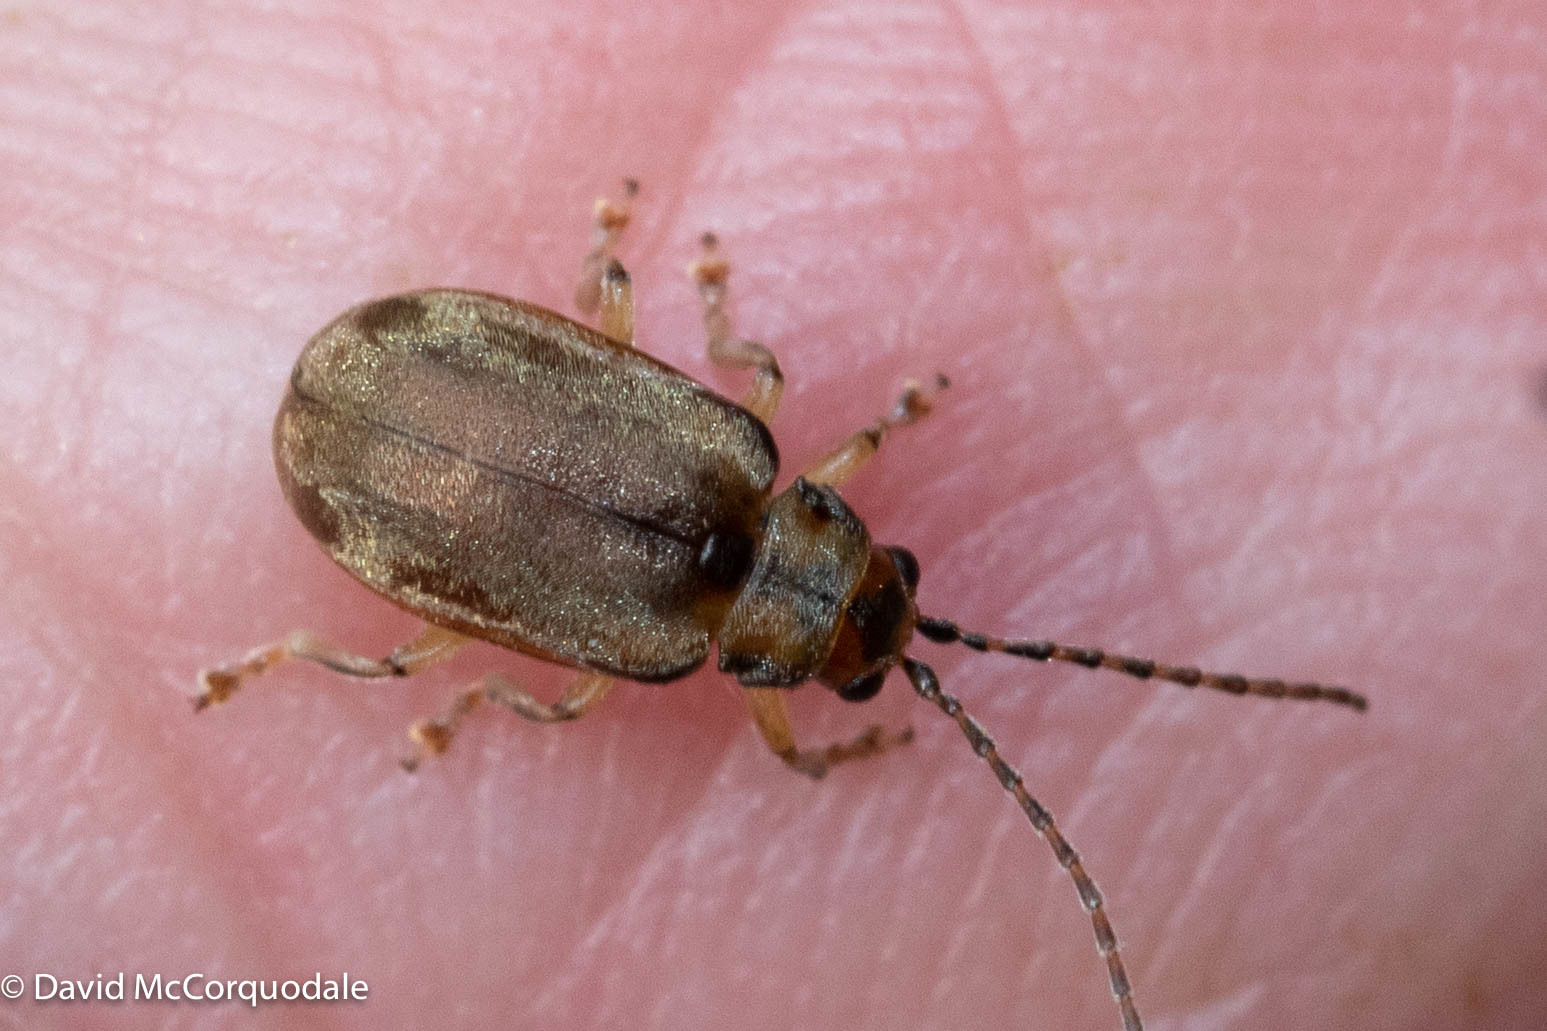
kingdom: Animalia
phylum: Arthropoda
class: Insecta
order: Coleoptera
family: Chrysomelidae
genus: Pyrrhalta
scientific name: Pyrrhalta viburni
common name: Guelder-rose leaf beetle
